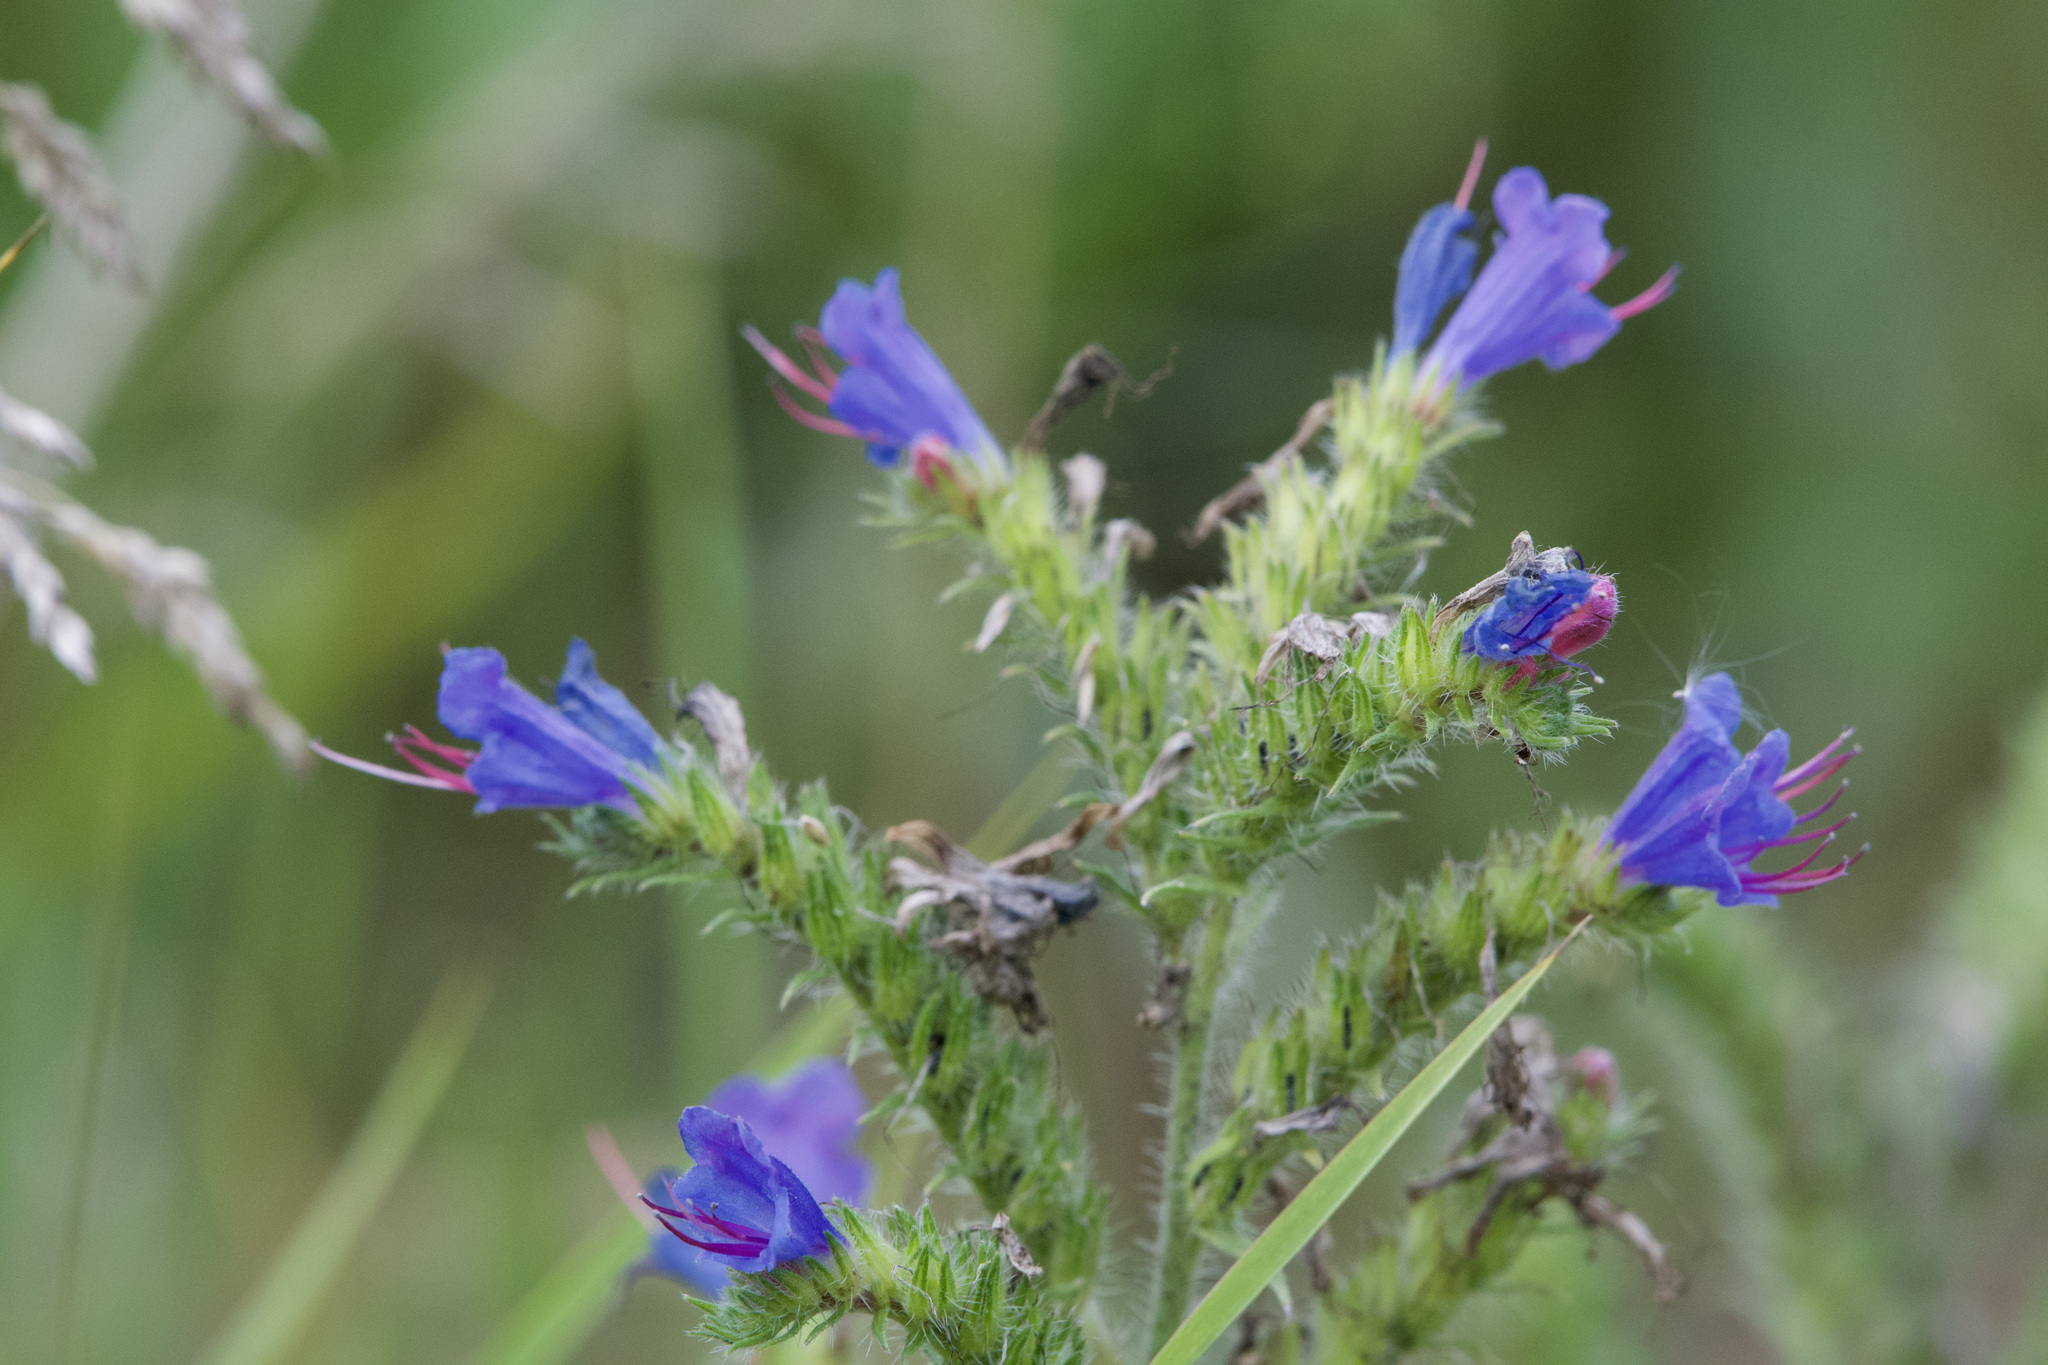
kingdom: Plantae
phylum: Tracheophyta
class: Magnoliopsida
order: Boraginales
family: Boraginaceae
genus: Echium
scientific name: Echium vulgare
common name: Common viper's bugloss
